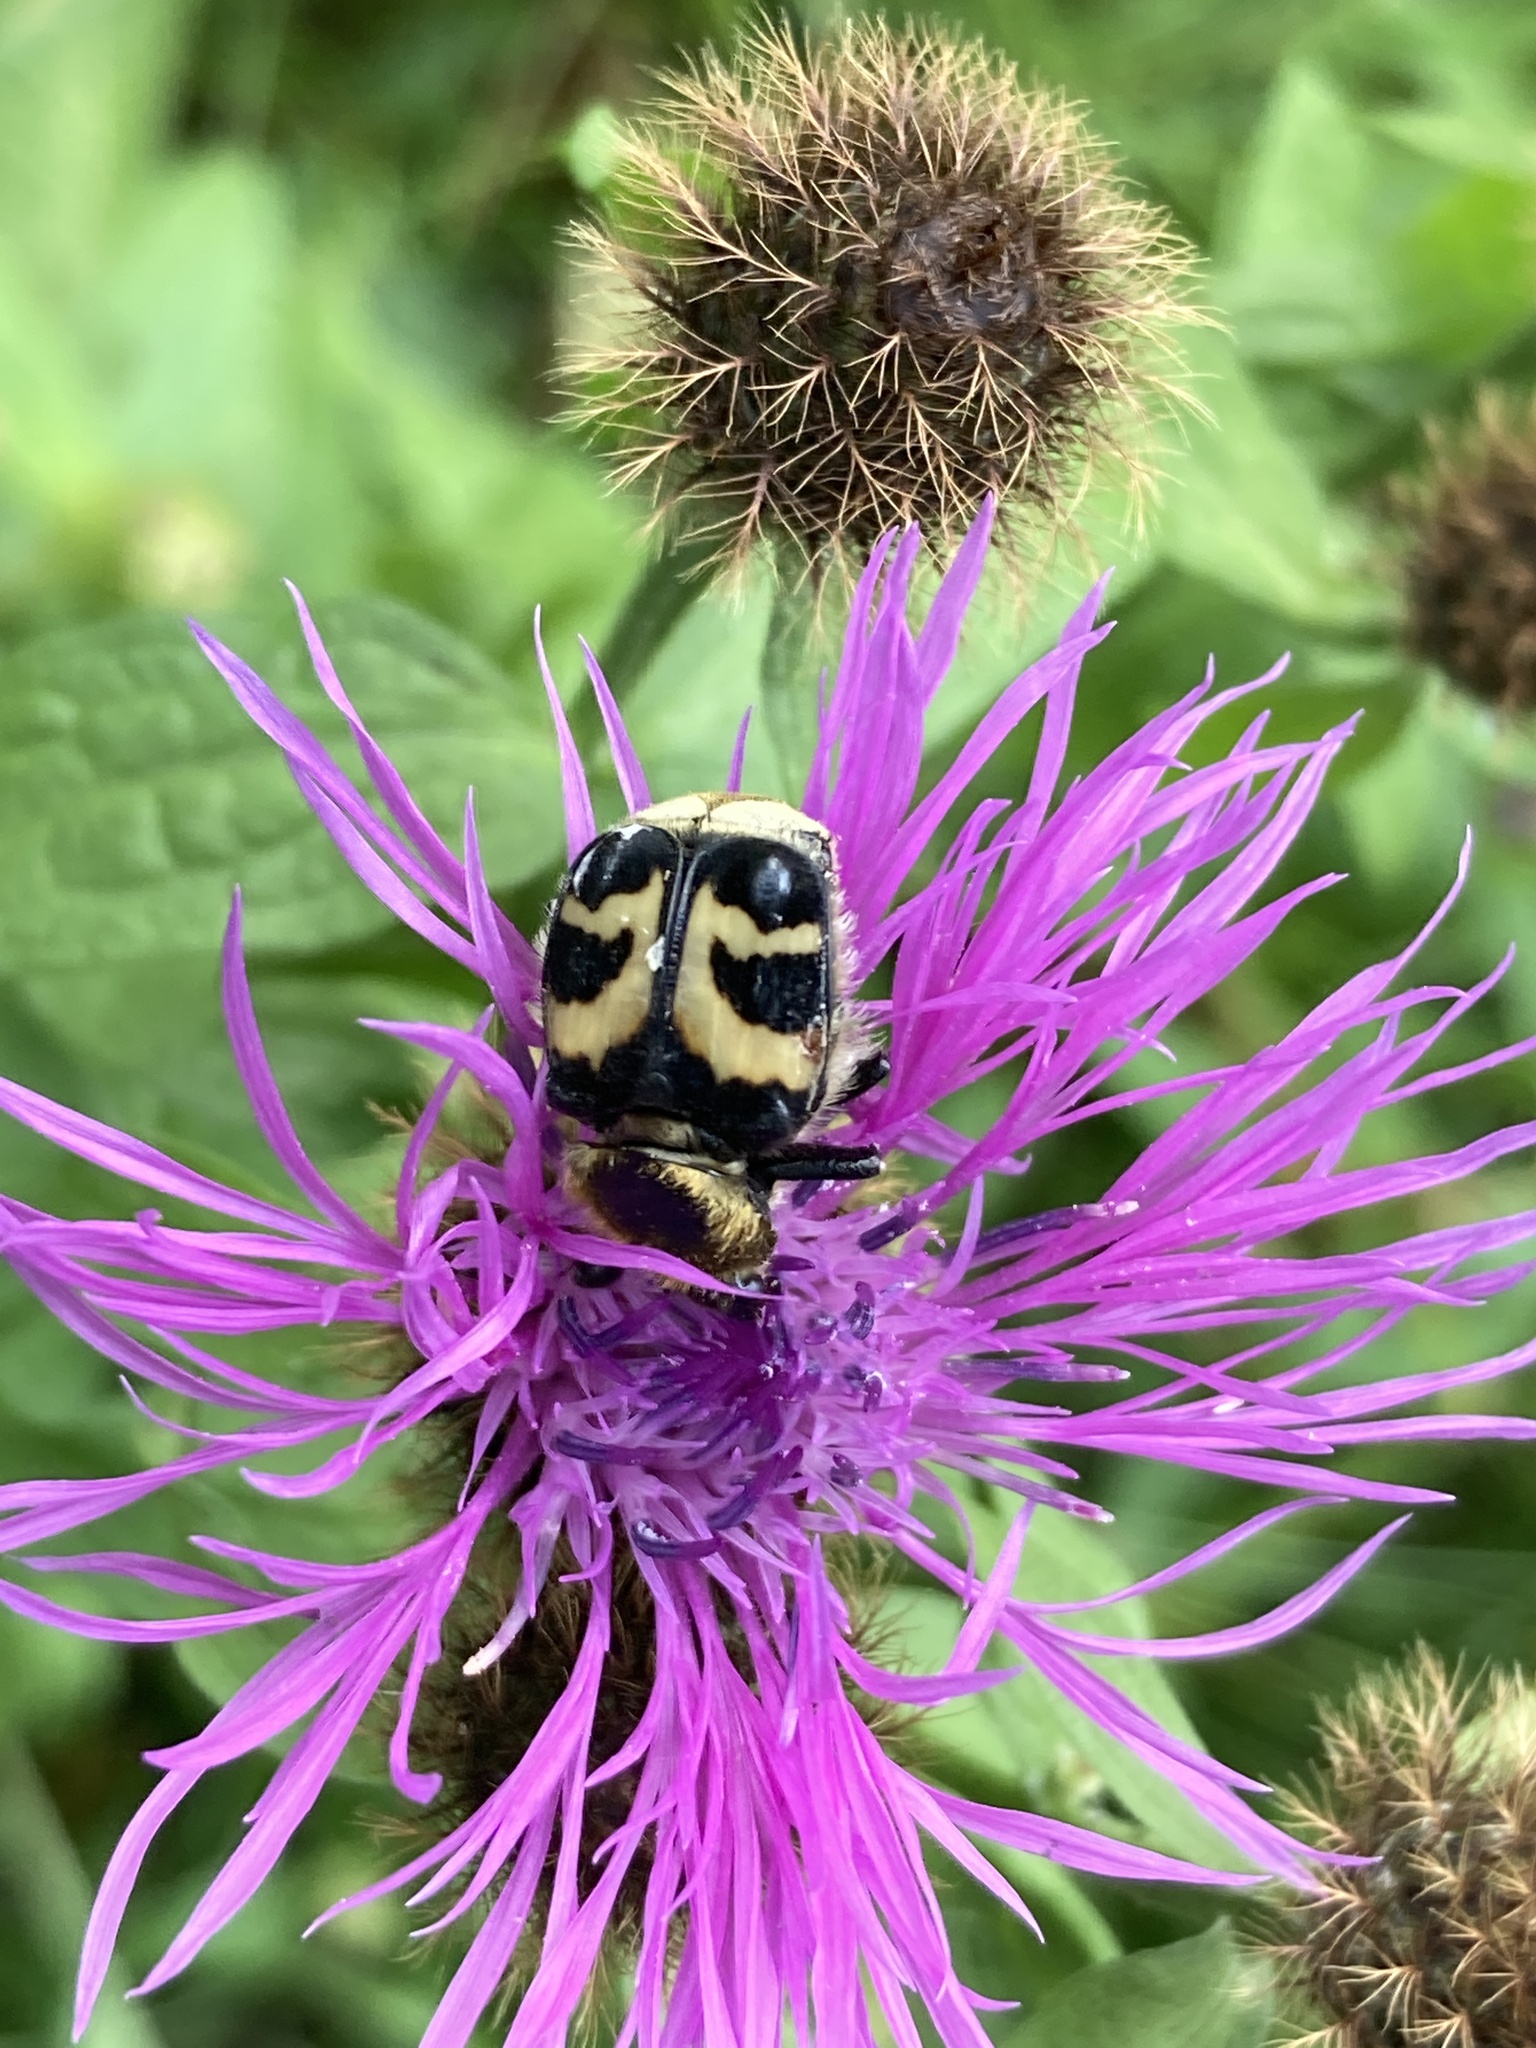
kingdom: Animalia
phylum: Arthropoda
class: Insecta
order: Coleoptera
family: Scarabaeidae
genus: Trichius
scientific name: Trichius fasciatus
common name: Bee beetle
